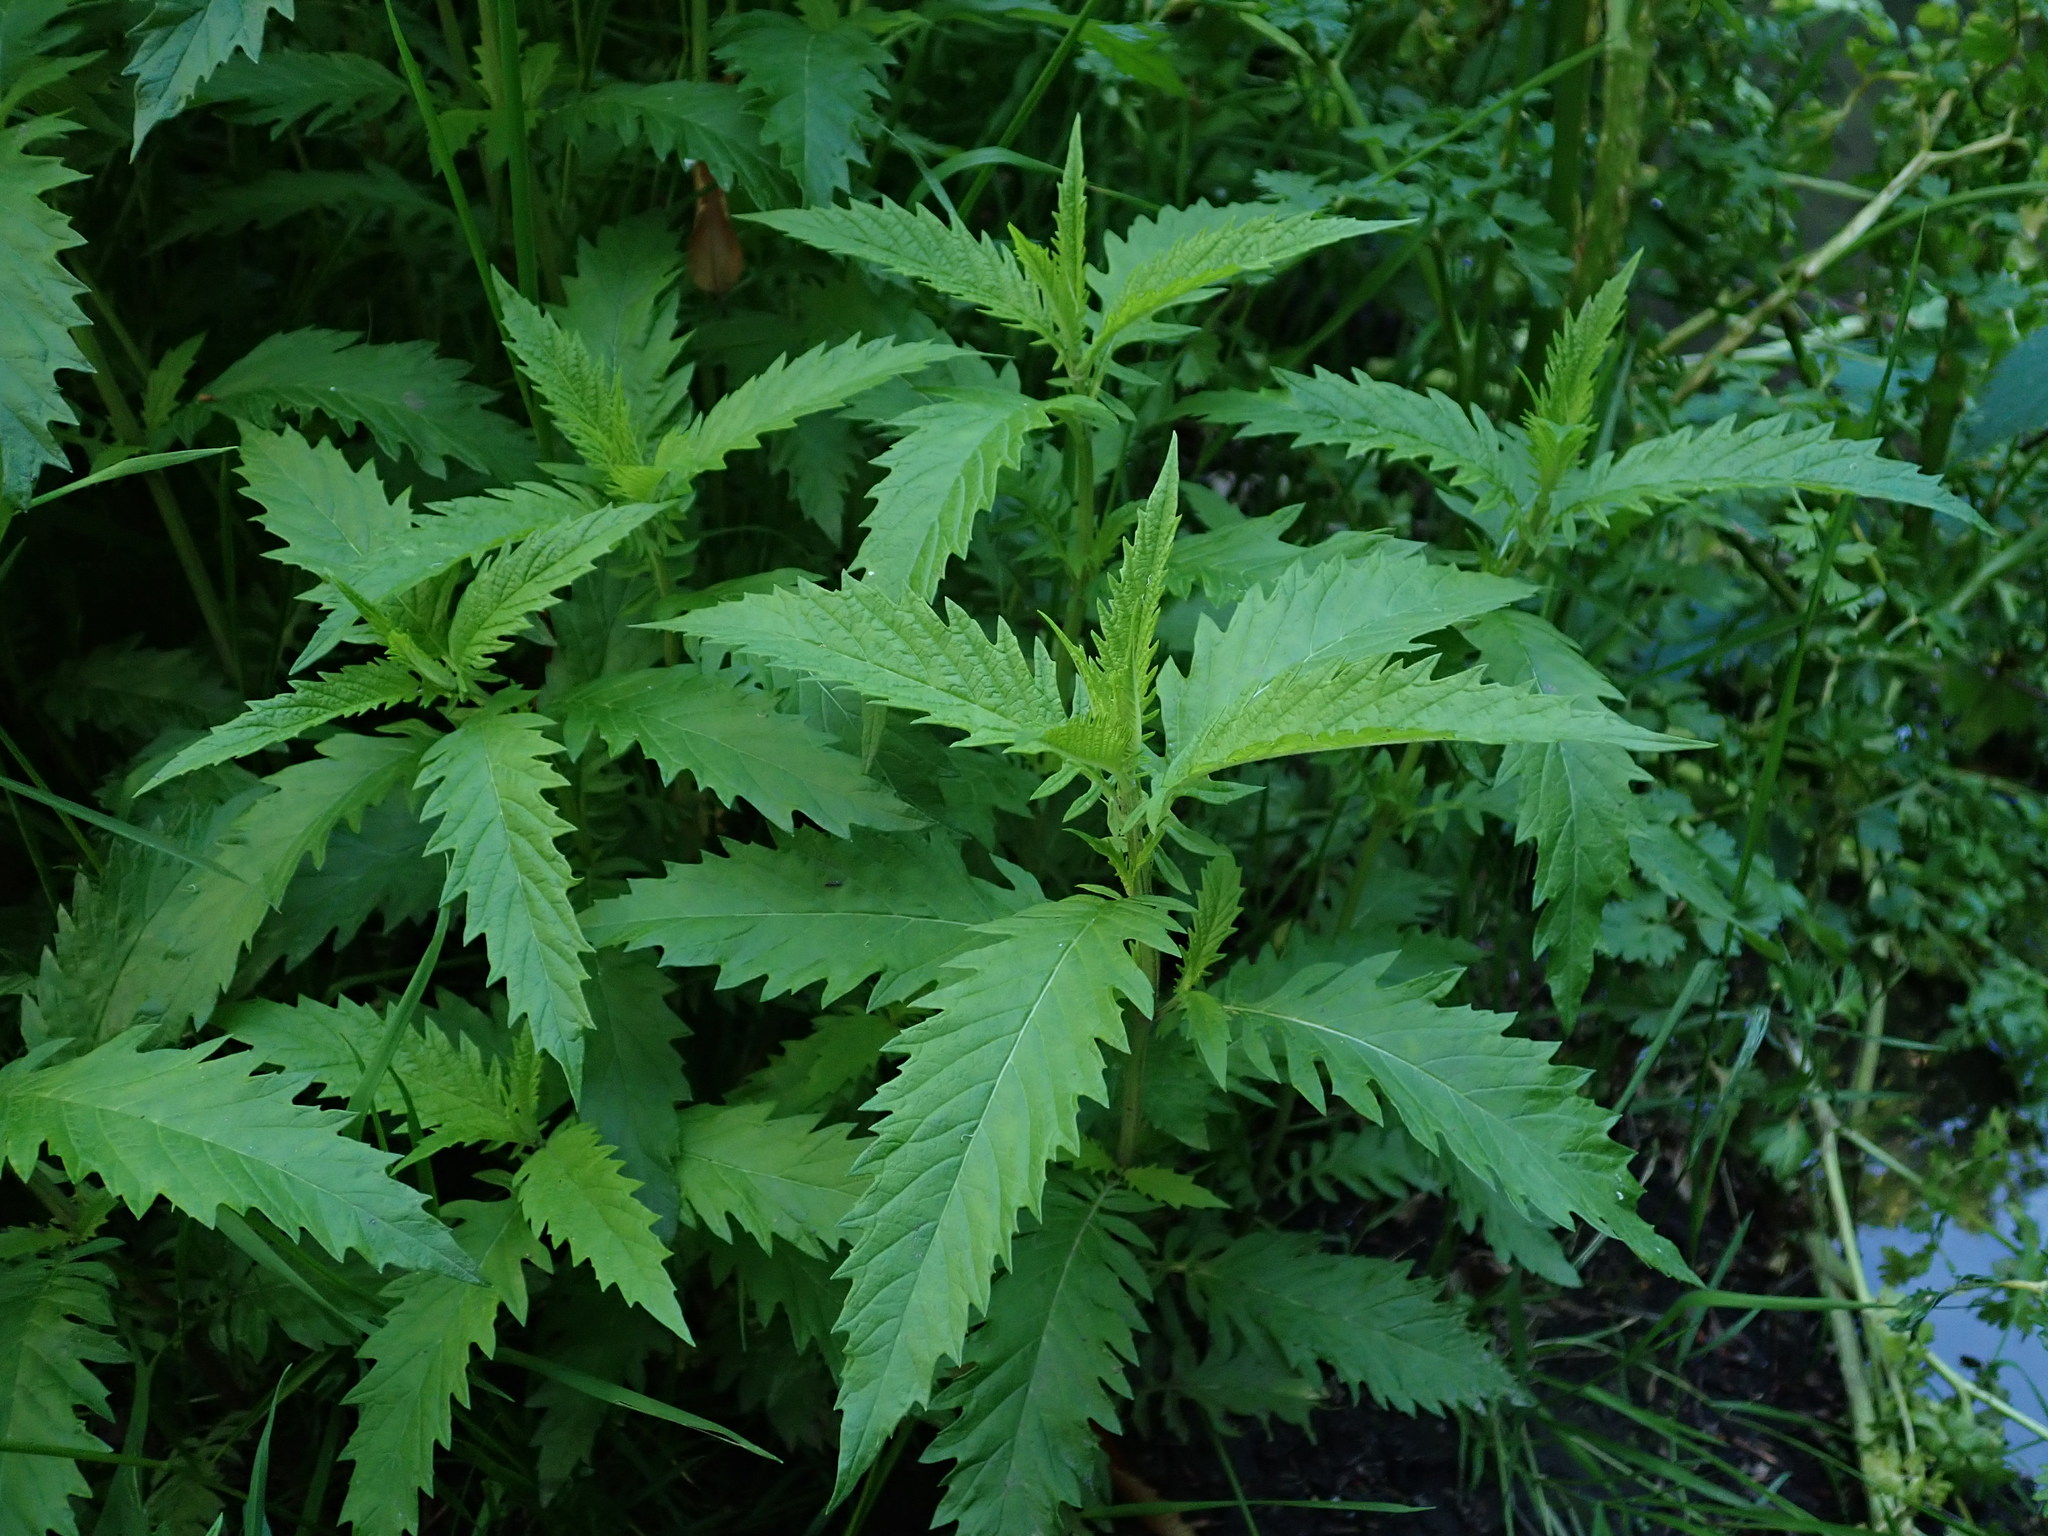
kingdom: Plantae
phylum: Tracheophyta
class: Magnoliopsida
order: Lamiales
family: Lamiaceae
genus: Lycopus
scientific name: Lycopus europaeus
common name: European bugleweed
